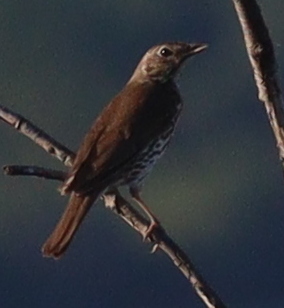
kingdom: Animalia
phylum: Chordata
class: Aves
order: Passeriformes
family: Turdidae
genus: Turdus
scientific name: Turdus philomelos
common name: Song thrush
